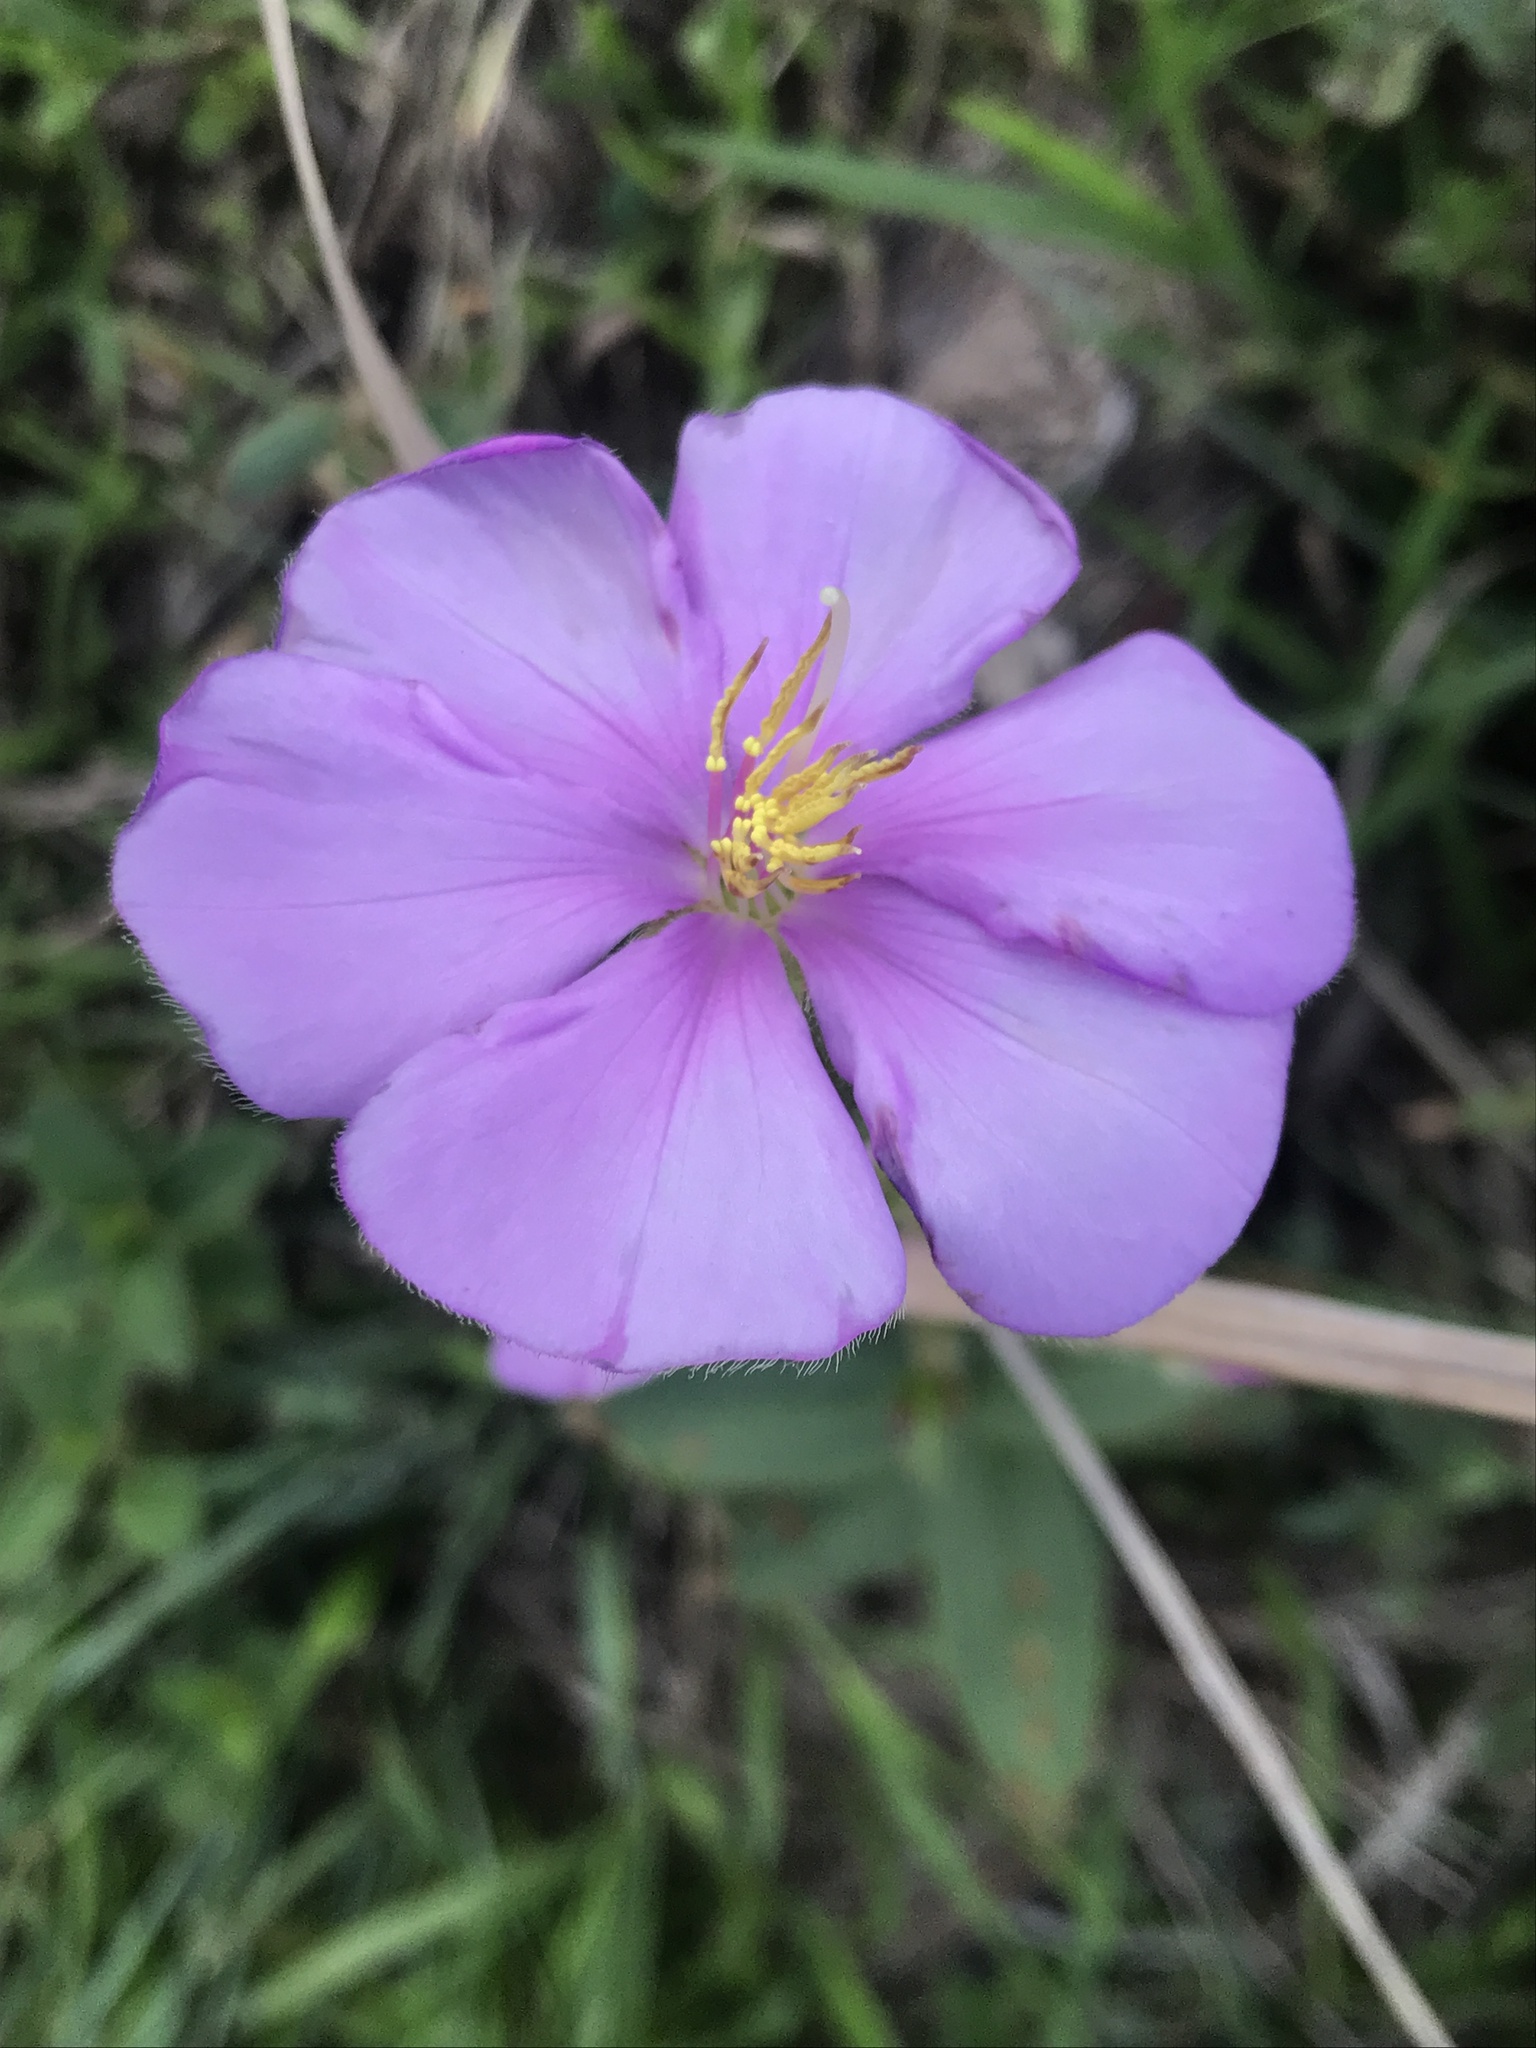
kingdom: Plantae
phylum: Tracheophyta
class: Magnoliopsida
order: Myrtales
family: Melastomataceae
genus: Chaetogastra
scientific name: Chaetogastra gracilis
